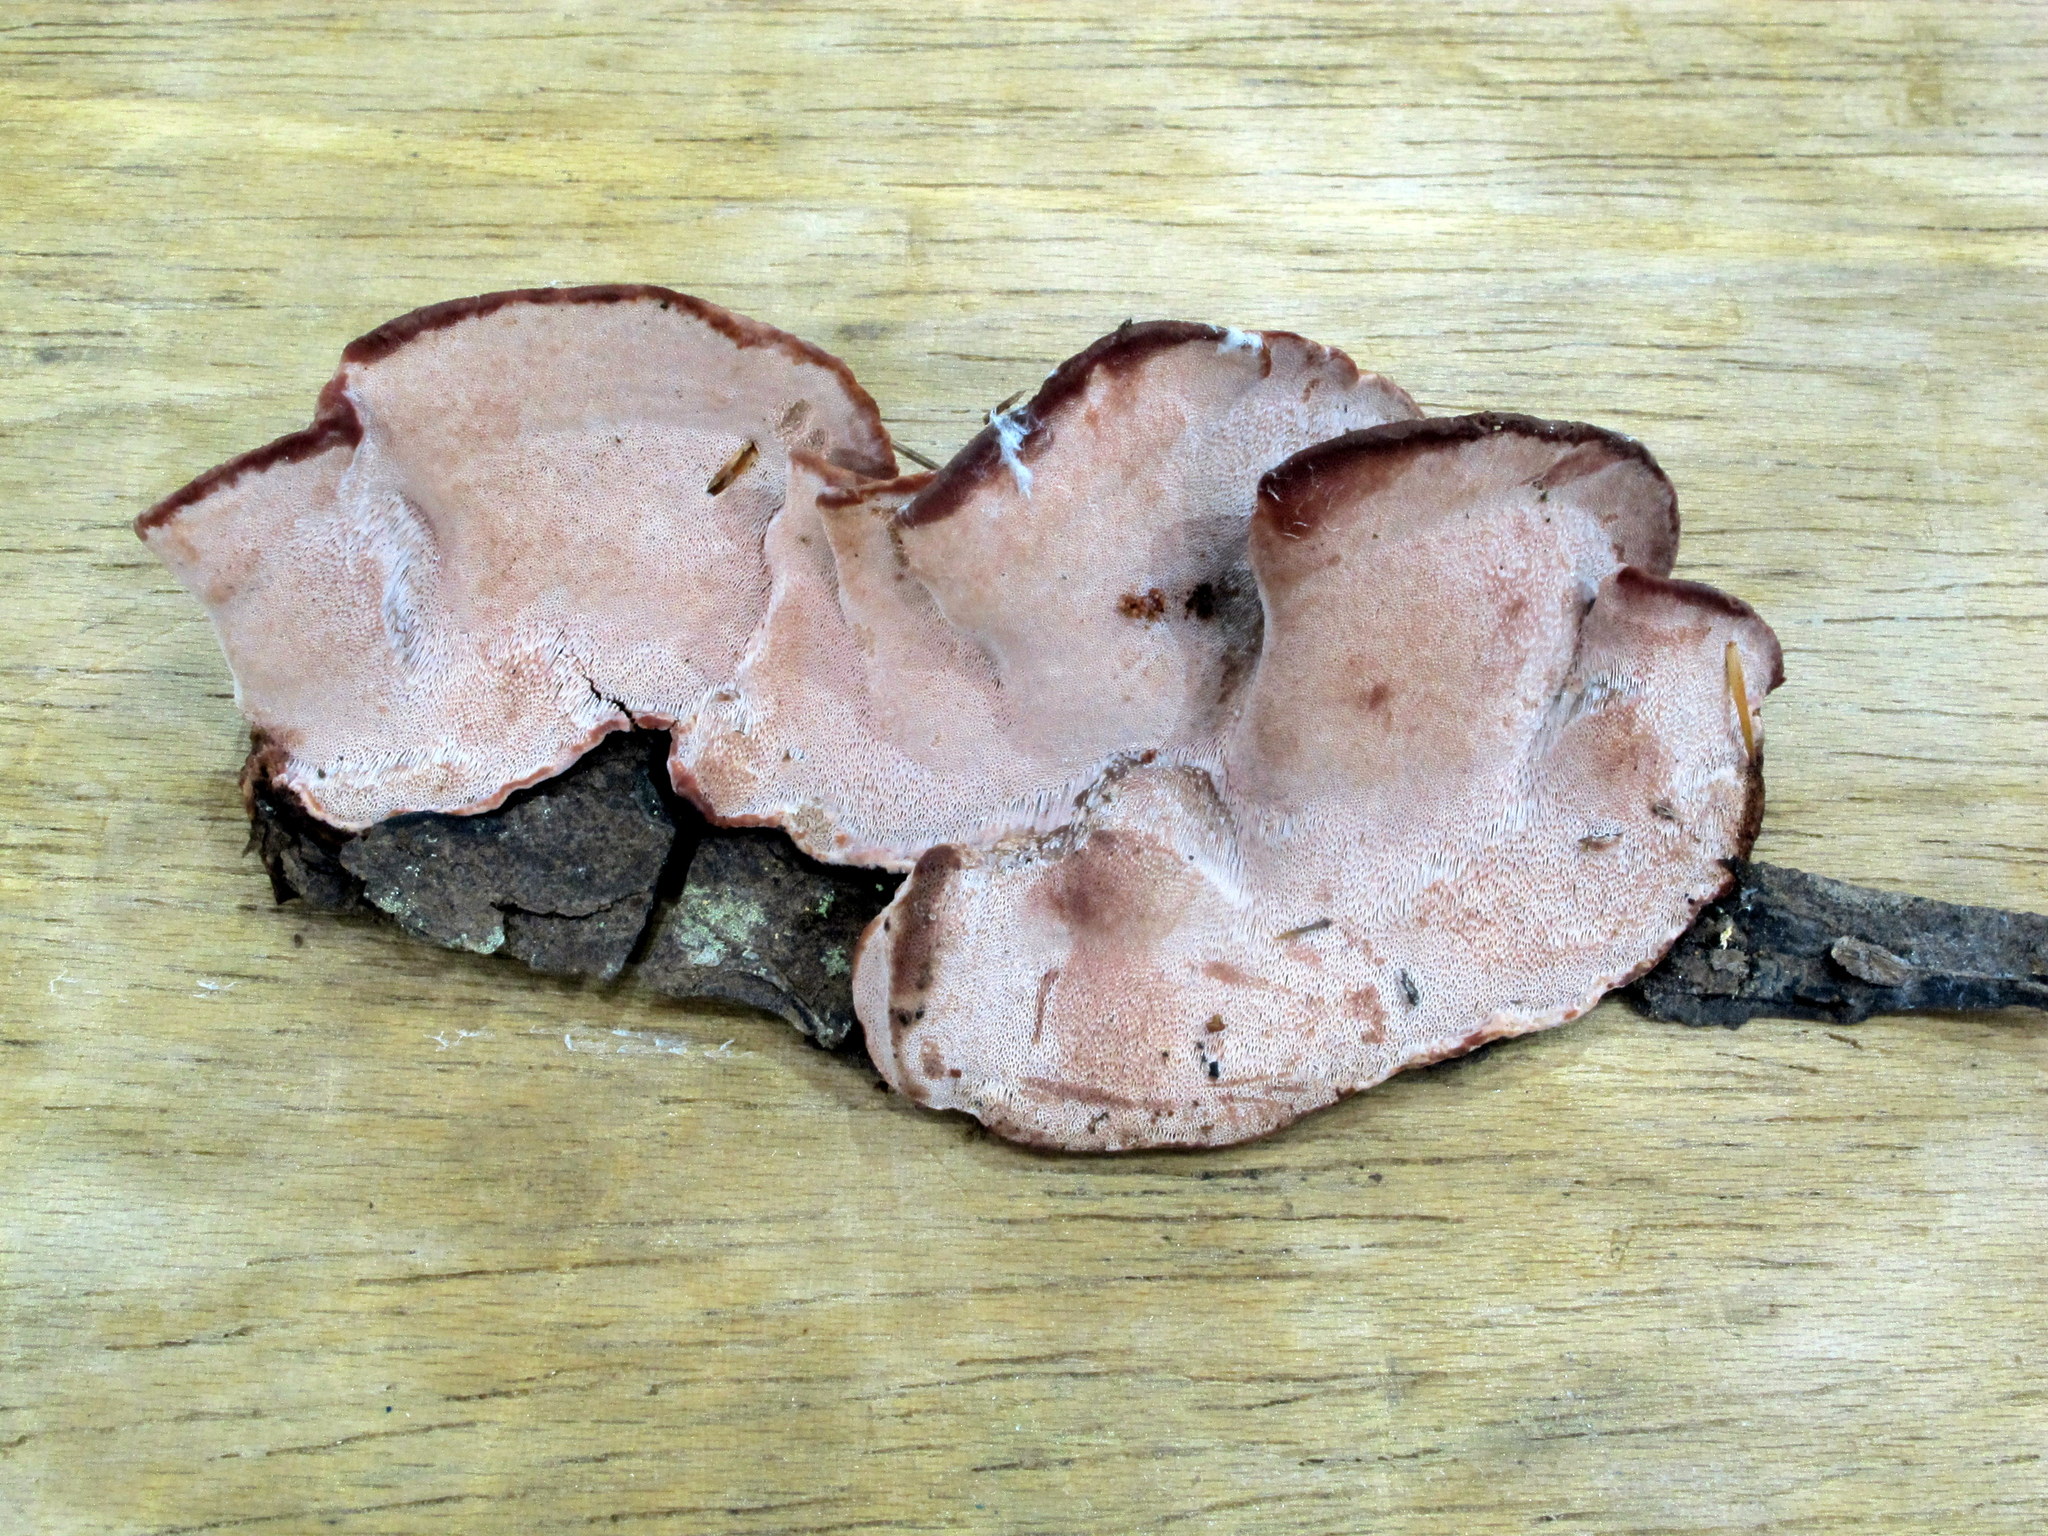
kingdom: Fungi
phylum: Basidiomycota
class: Agaricomycetes
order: Polyporales
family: Fomitopsidaceae
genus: Rhodofomes
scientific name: Rhodofomes cajanderi
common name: Rosy conk
